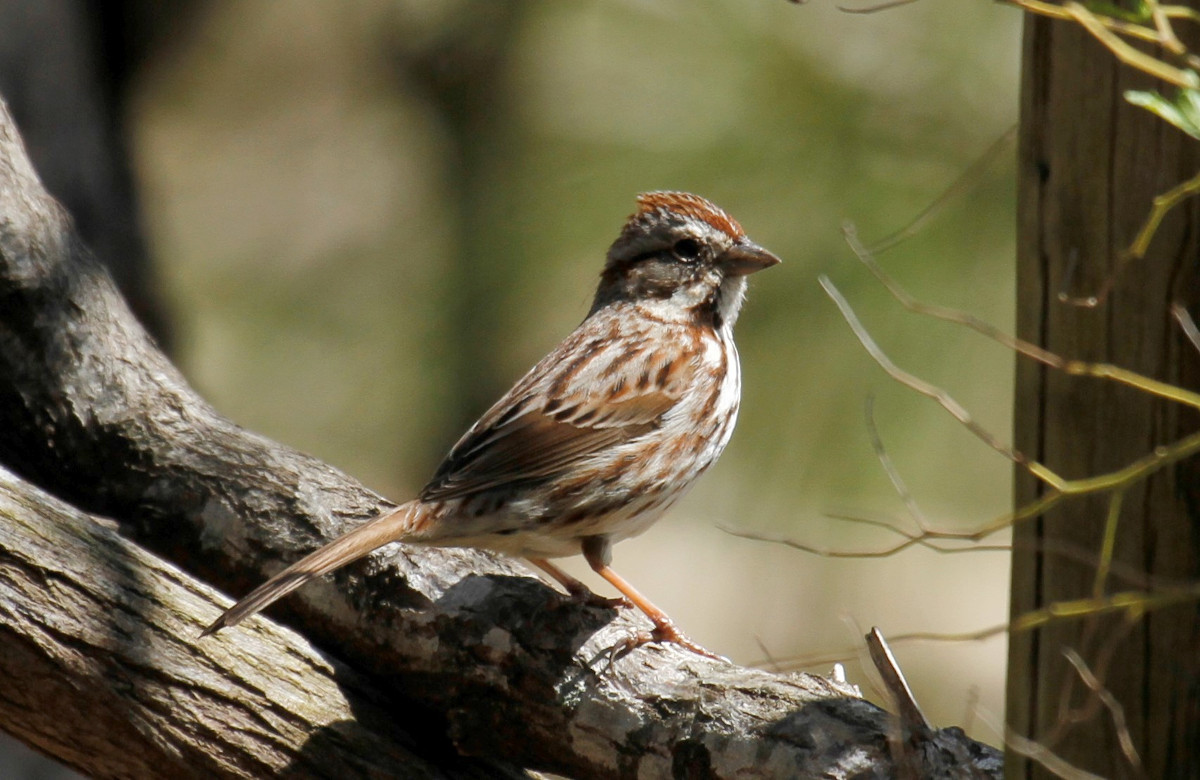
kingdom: Animalia
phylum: Chordata
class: Aves
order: Passeriformes
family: Passerellidae
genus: Melospiza
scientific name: Melospiza melodia
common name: Song sparrow
